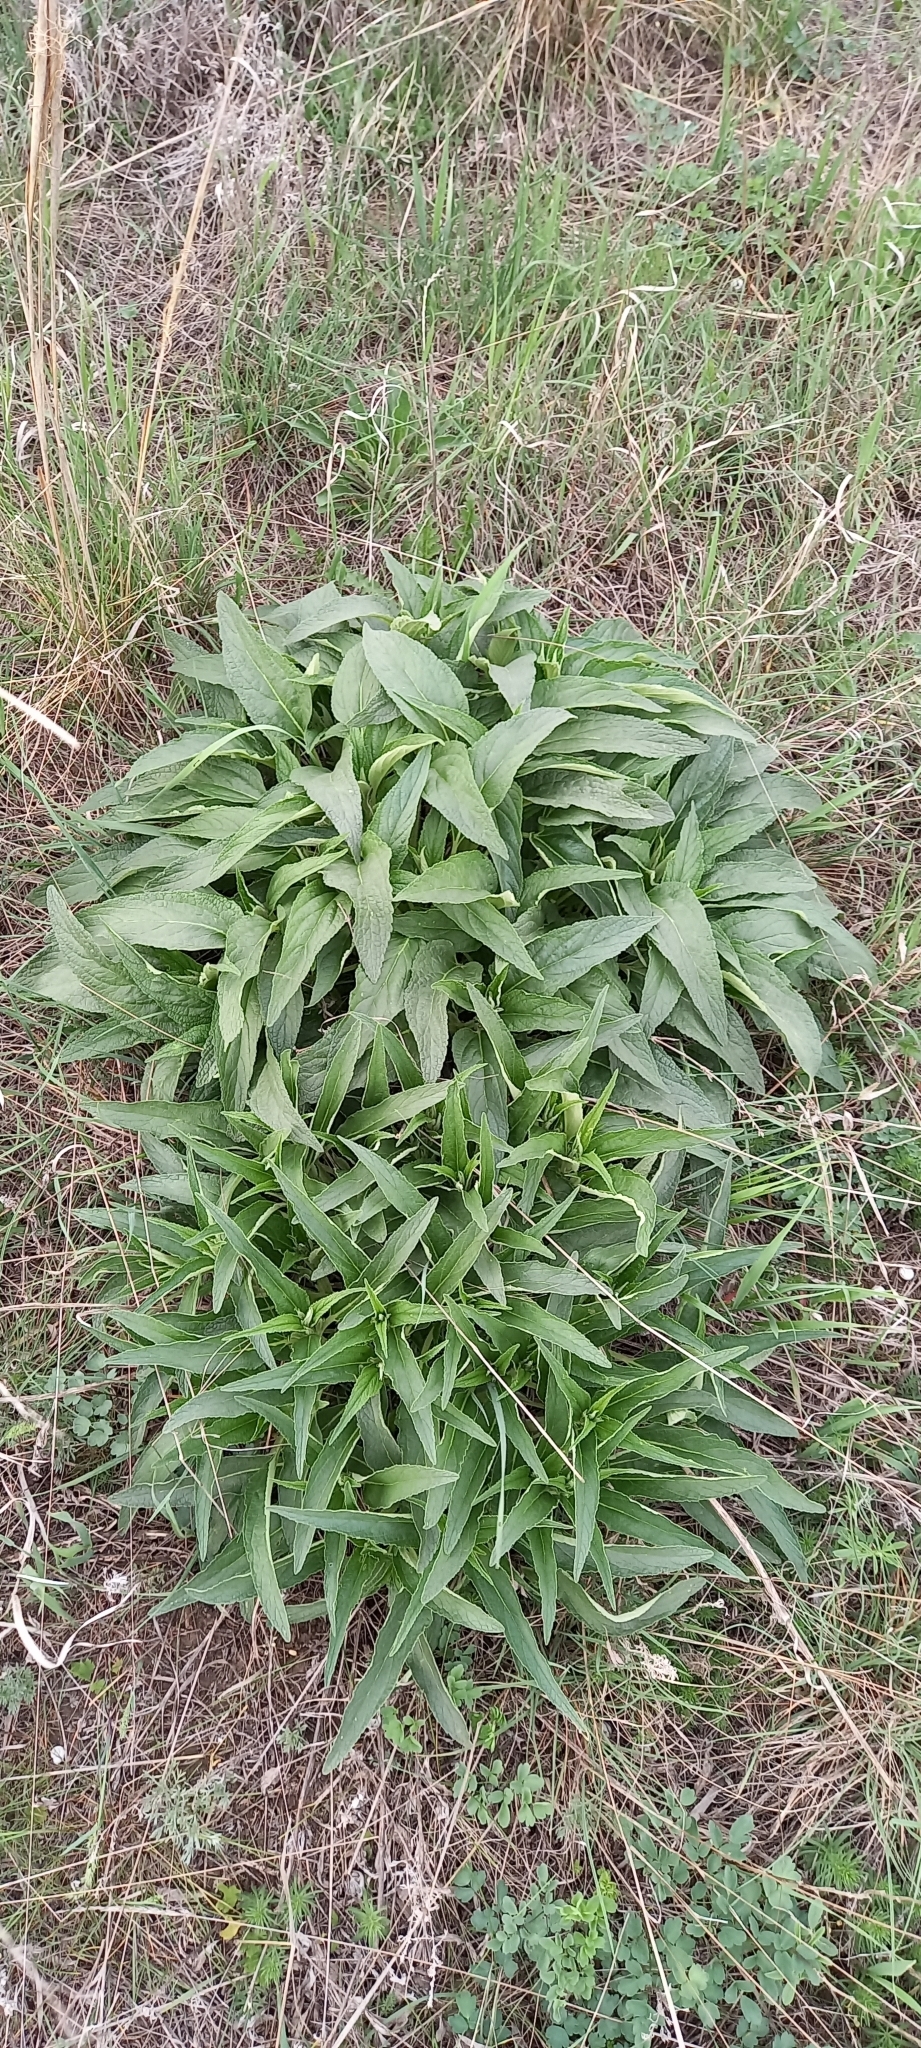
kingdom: Plantae
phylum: Tracheophyta
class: Magnoliopsida
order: Lamiales
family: Lamiaceae
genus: Phlomis
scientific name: Phlomis herba-venti
